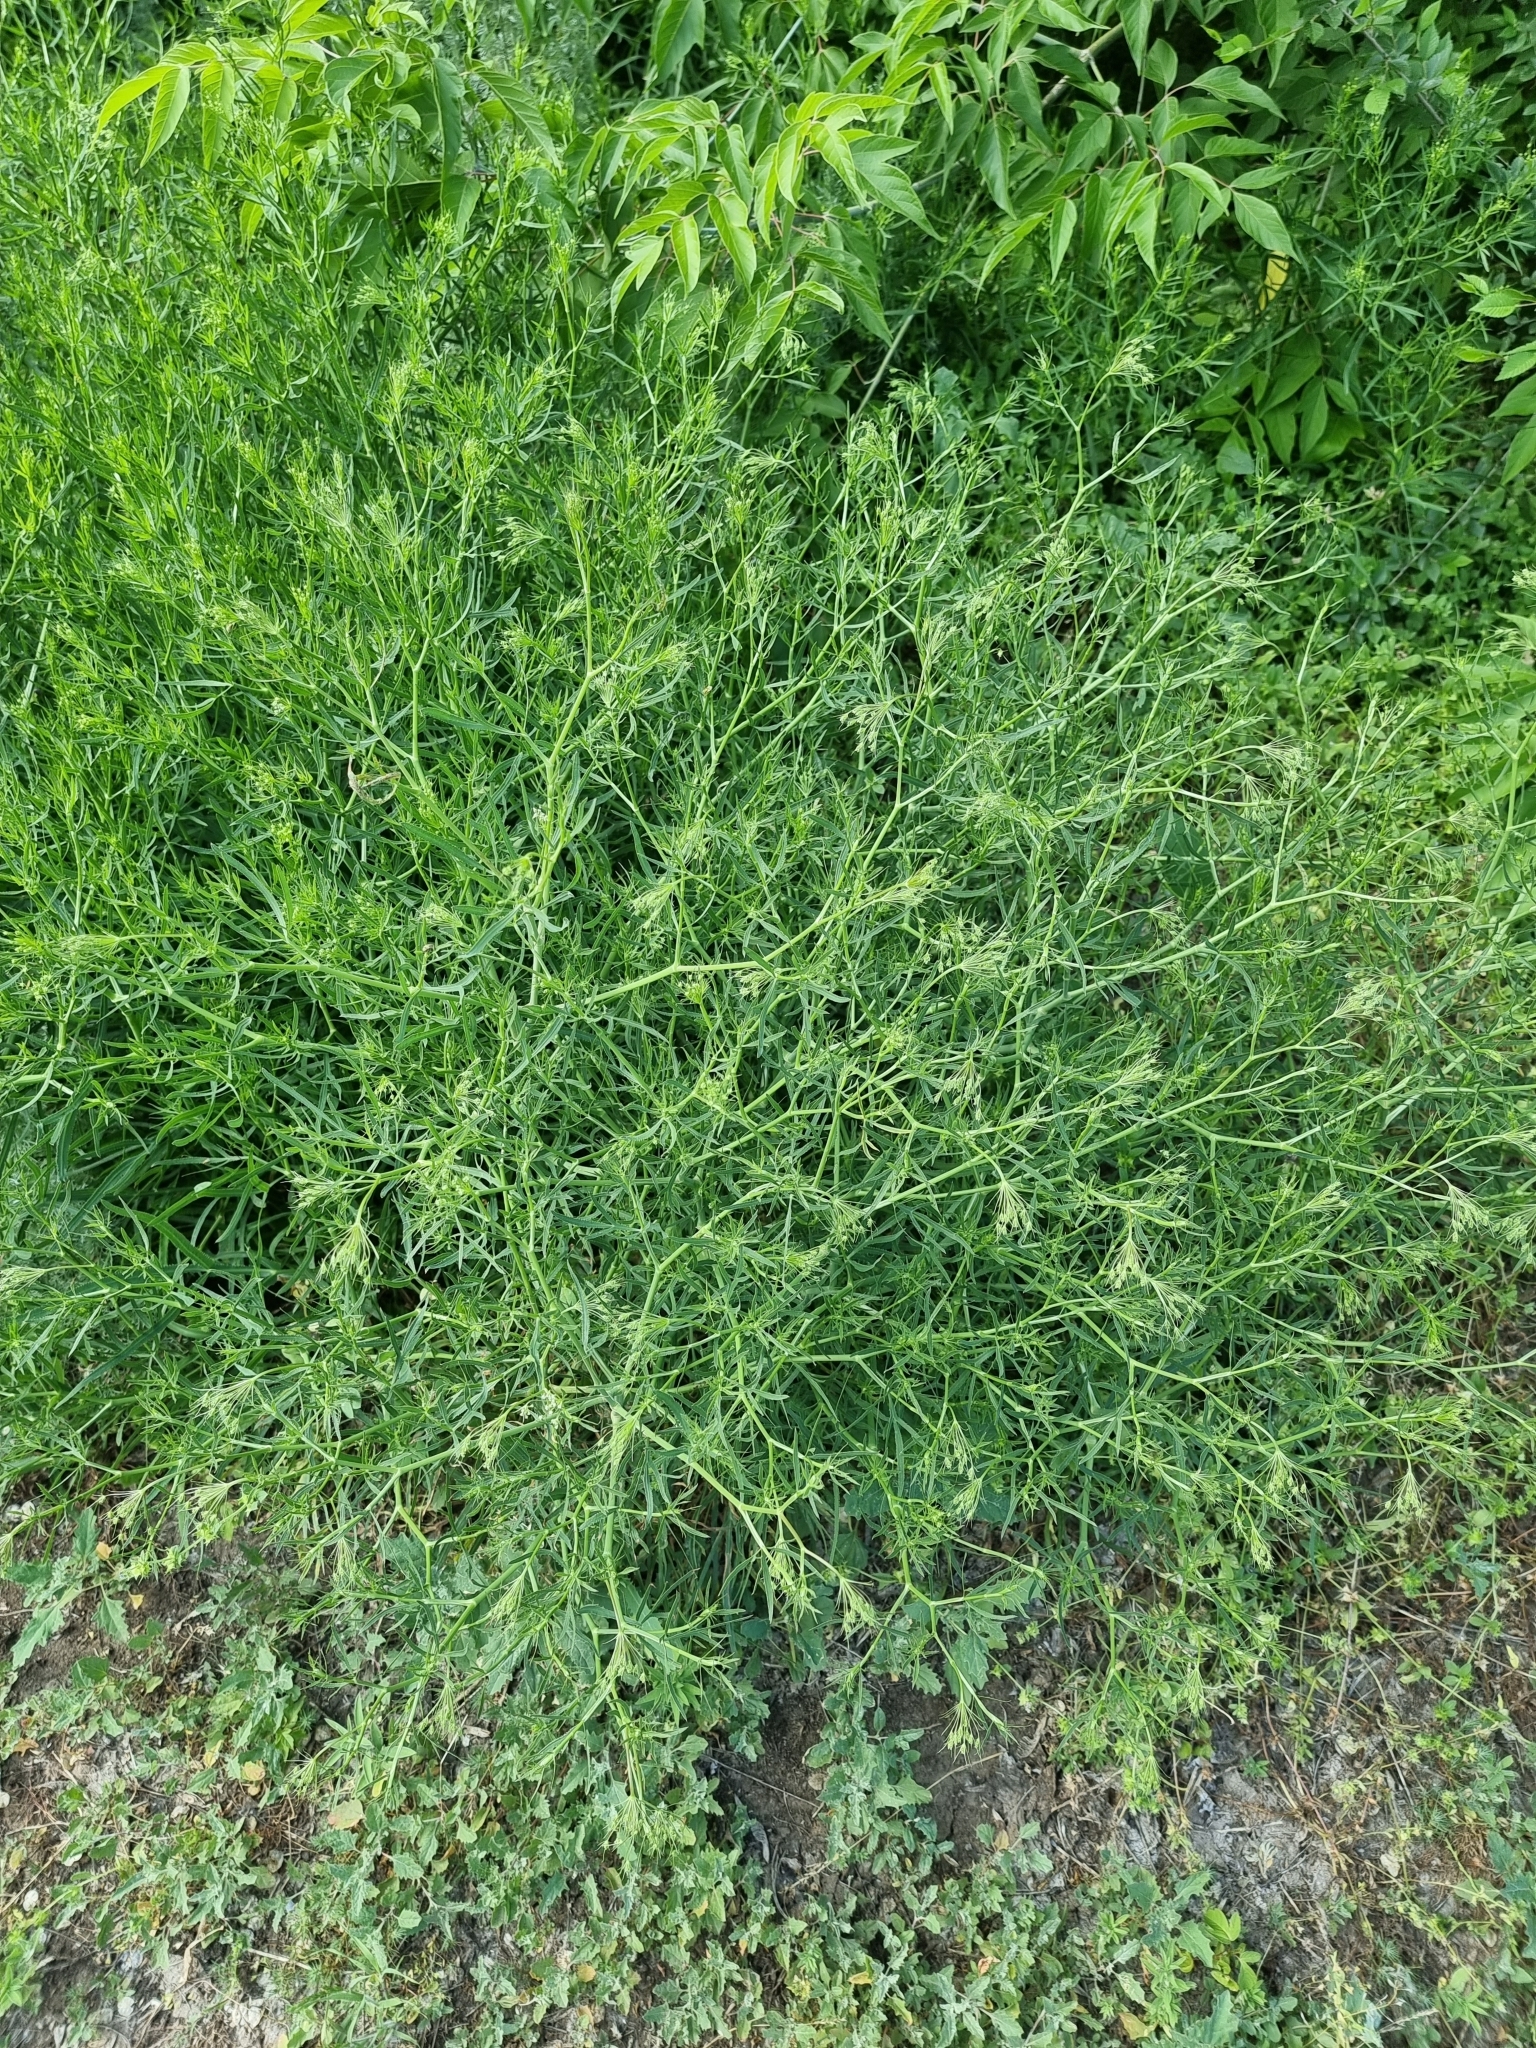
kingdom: Plantae
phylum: Tracheophyta
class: Magnoliopsida
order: Apiales
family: Apiaceae
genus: Falcaria
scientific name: Falcaria vulgaris
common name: Longleaf
